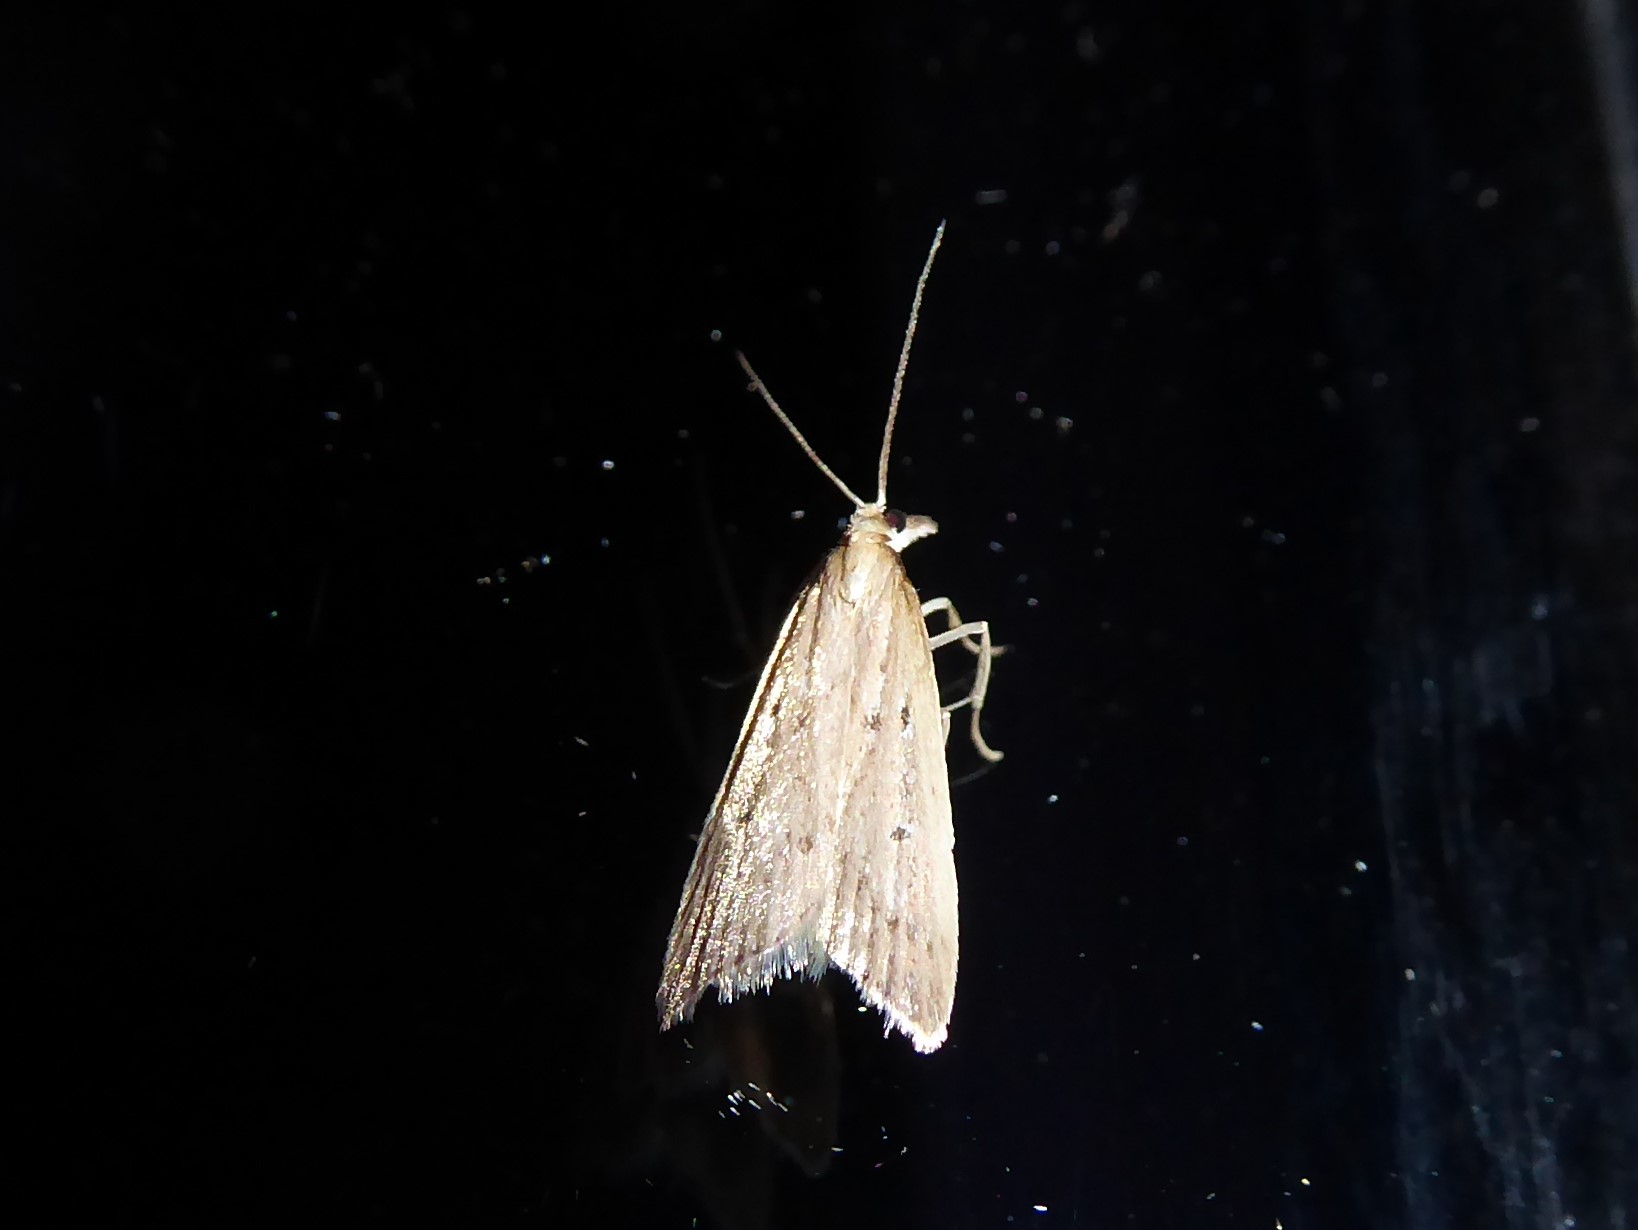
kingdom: Animalia
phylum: Arthropoda
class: Insecta
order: Lepidoptera
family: Crambidae
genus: Eudonia
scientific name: Eudonia sabulosella
